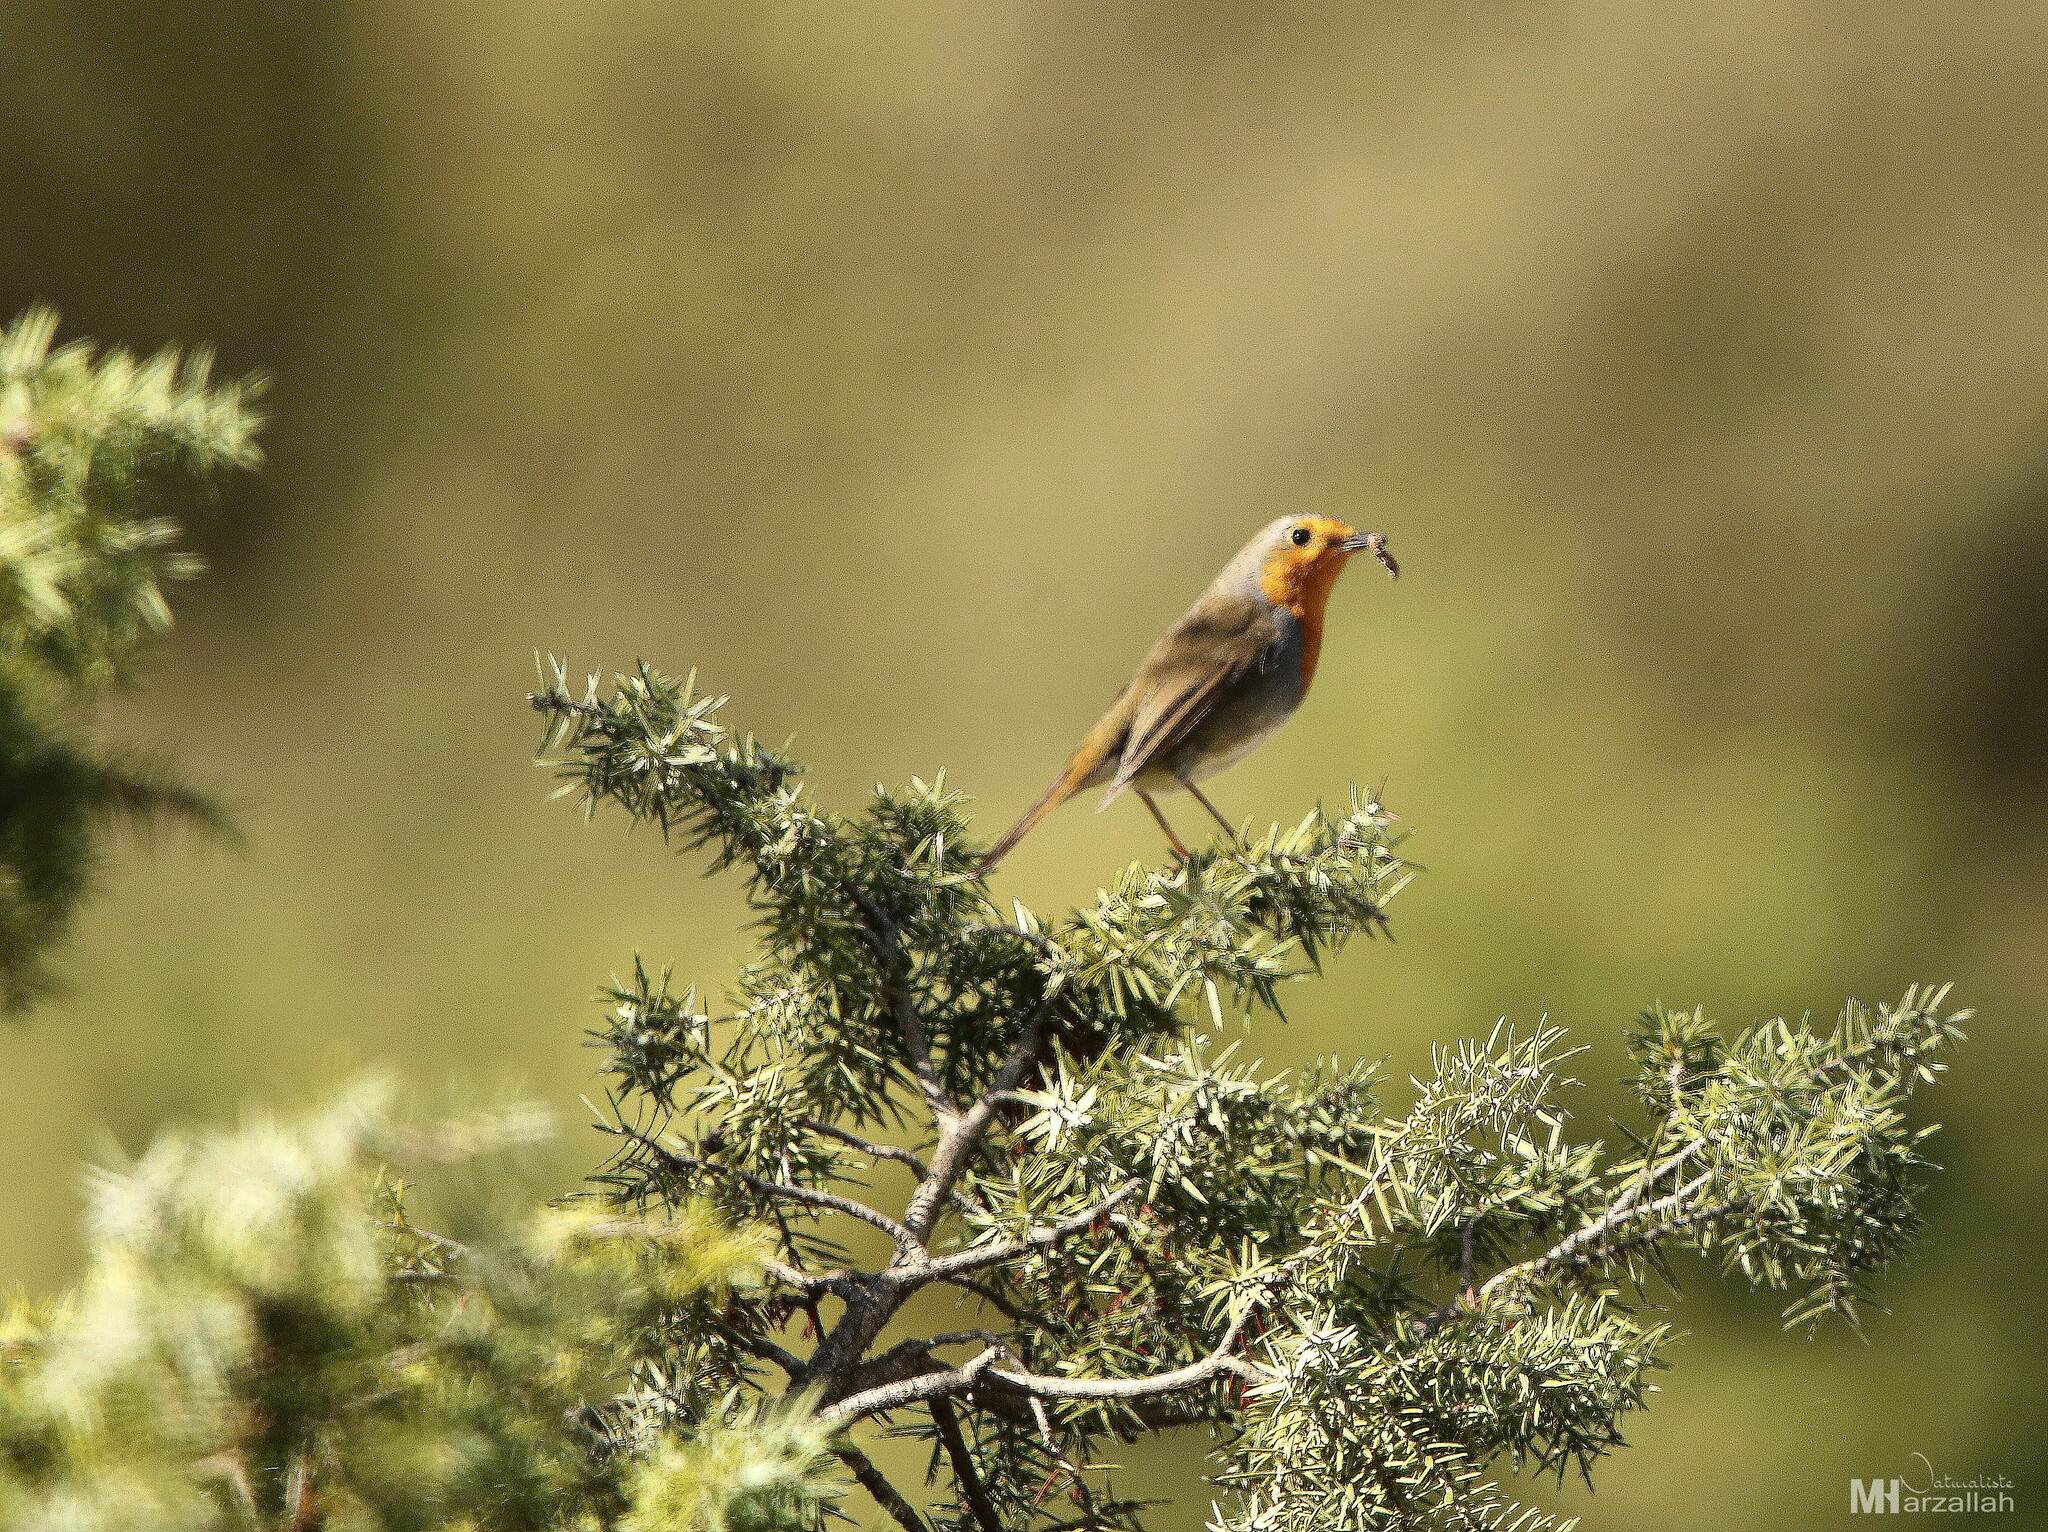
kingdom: Animalia
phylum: Chordata
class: Aves
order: Passeriformes
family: Muscicapidae
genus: Erithacus
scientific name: Erithacus rubecula
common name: European robin
